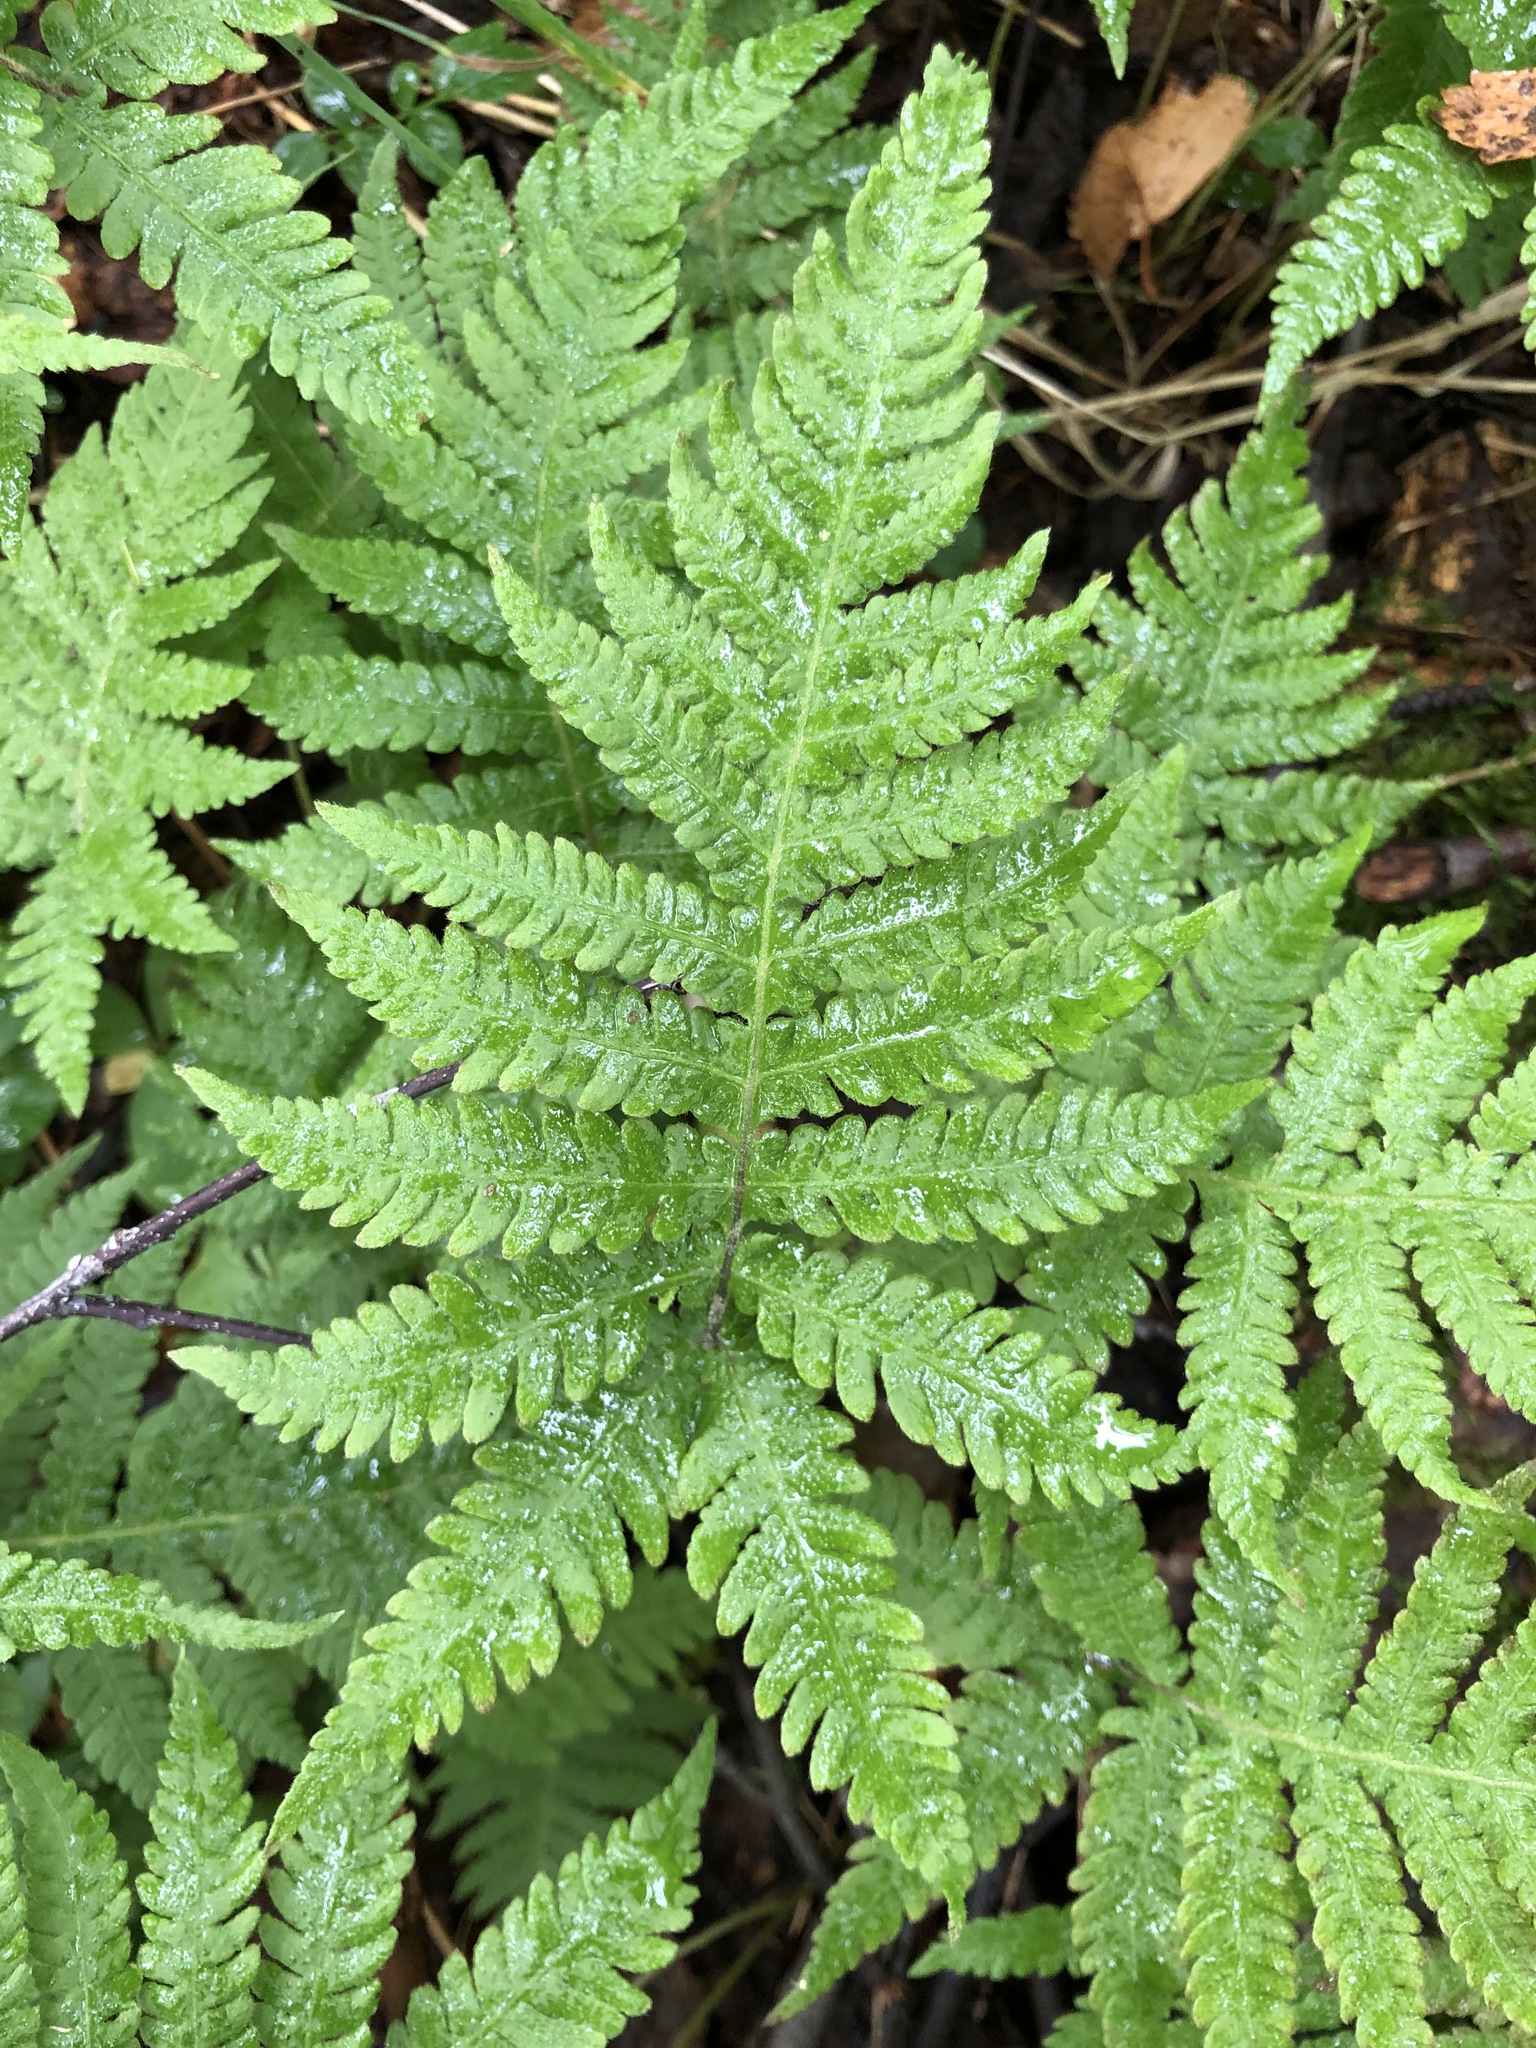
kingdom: Plantae
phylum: Tracheophyta
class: Polypodiopsida
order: Polypodiales
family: Thelypteridaceae
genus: Phegopteris
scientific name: Phegopteris connectilis
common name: Beech fern
